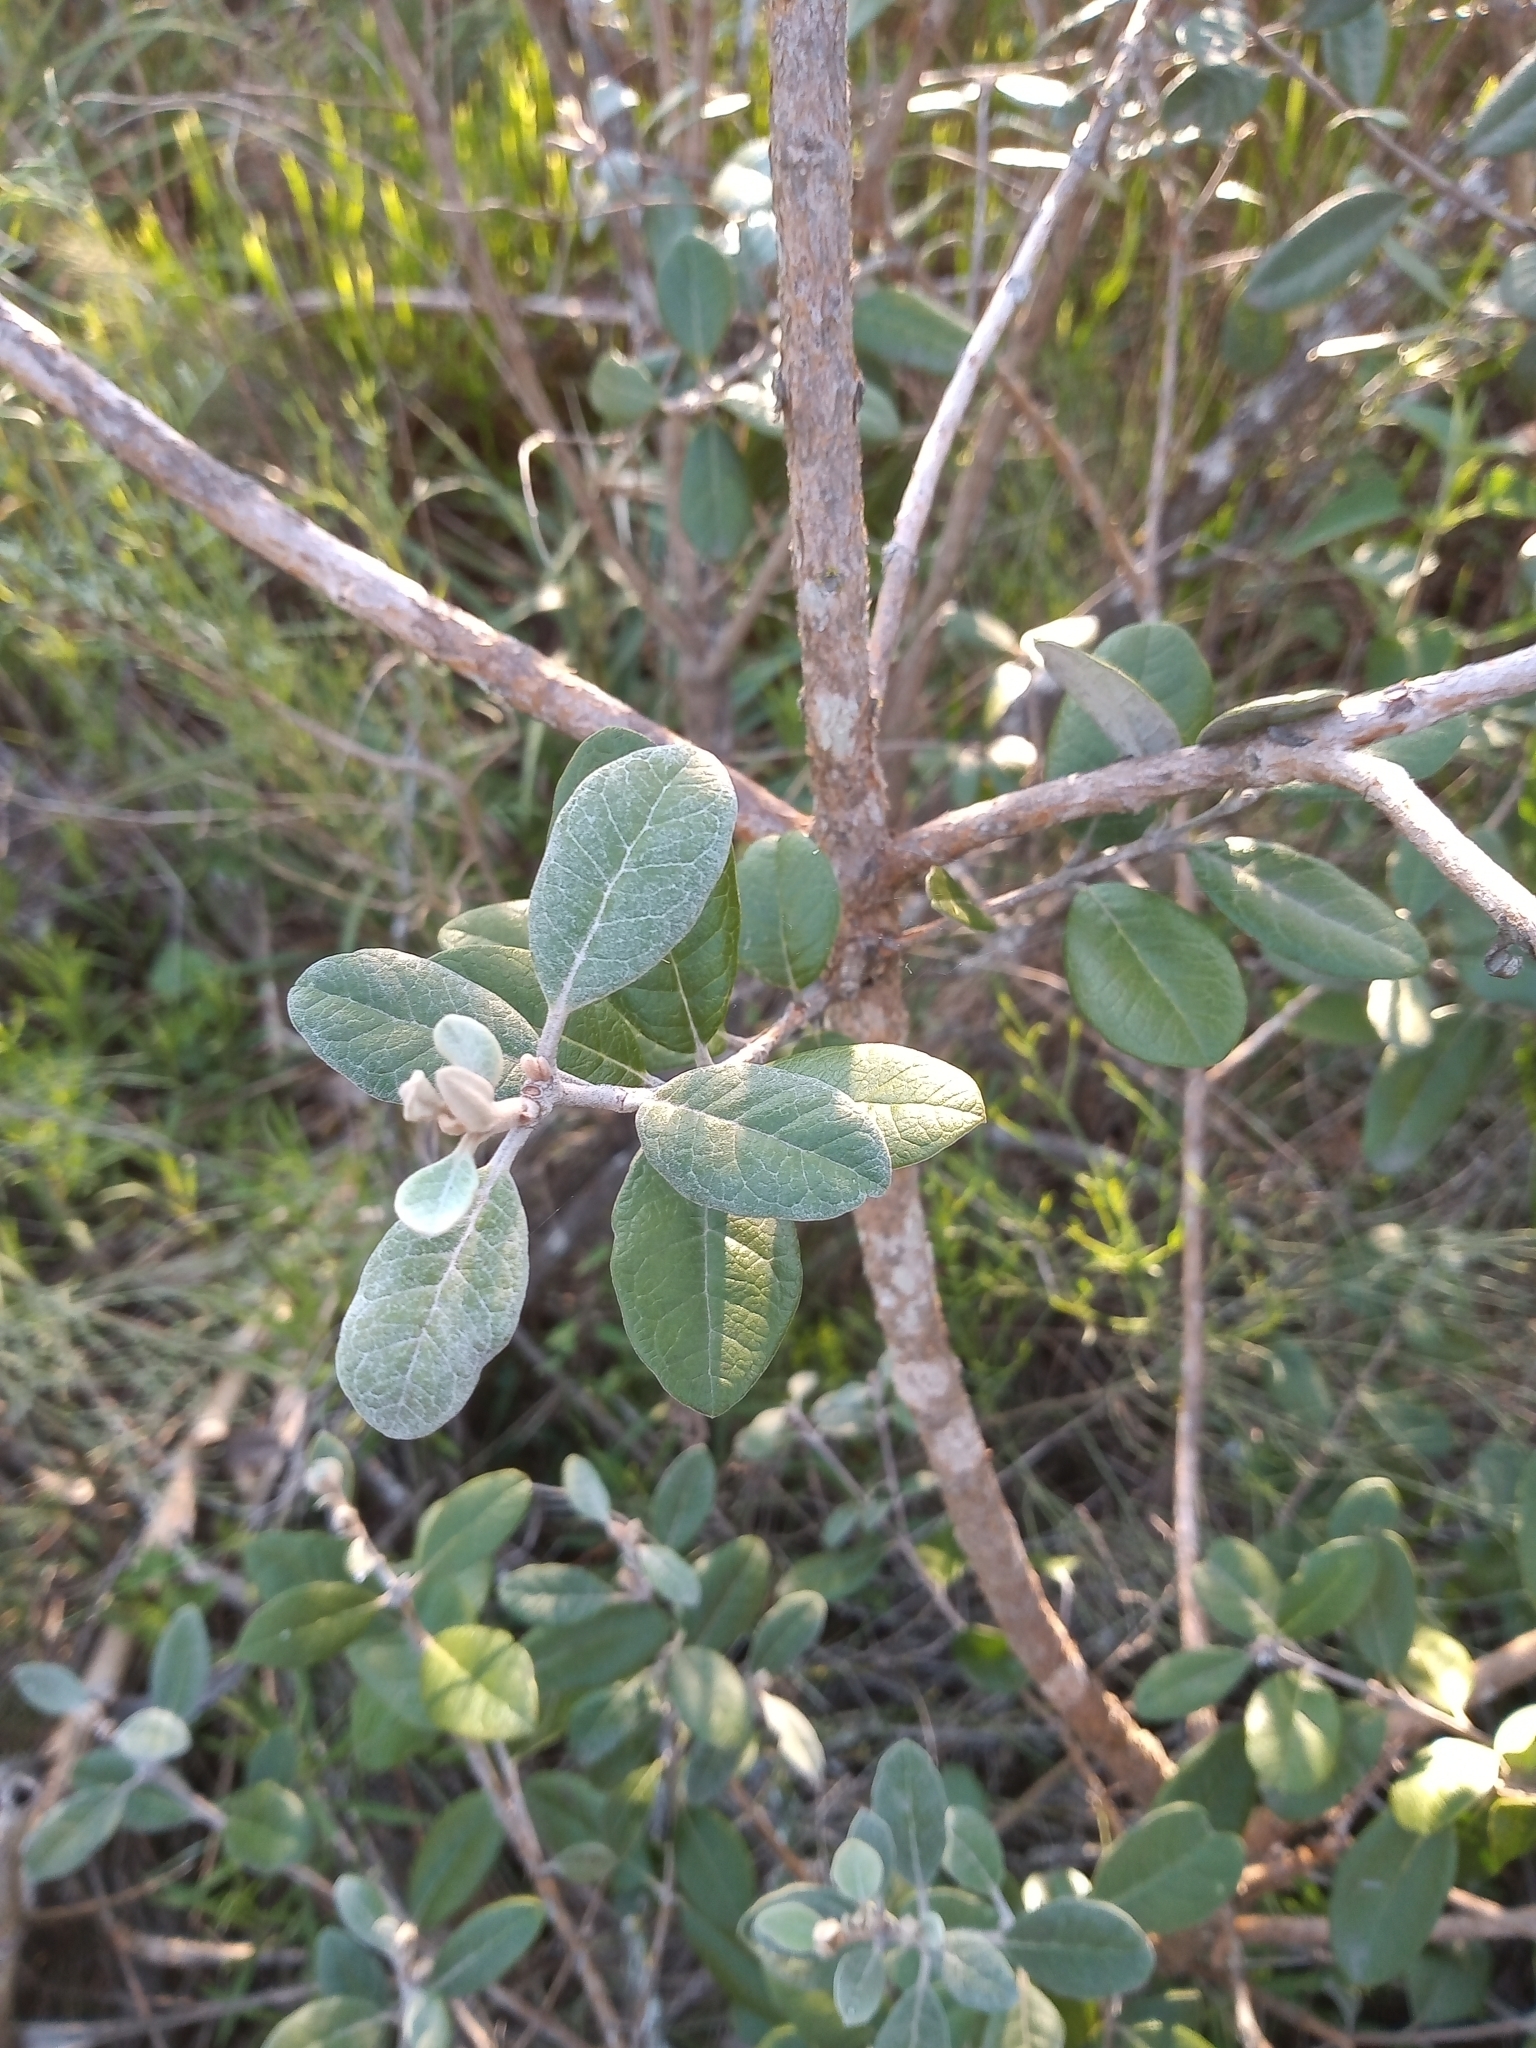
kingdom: Plantae
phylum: Tracheophyta
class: Magnoliopsida
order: Myrtales
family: Myrtaceae
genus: Feijoa
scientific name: Feijoa sellowiana
